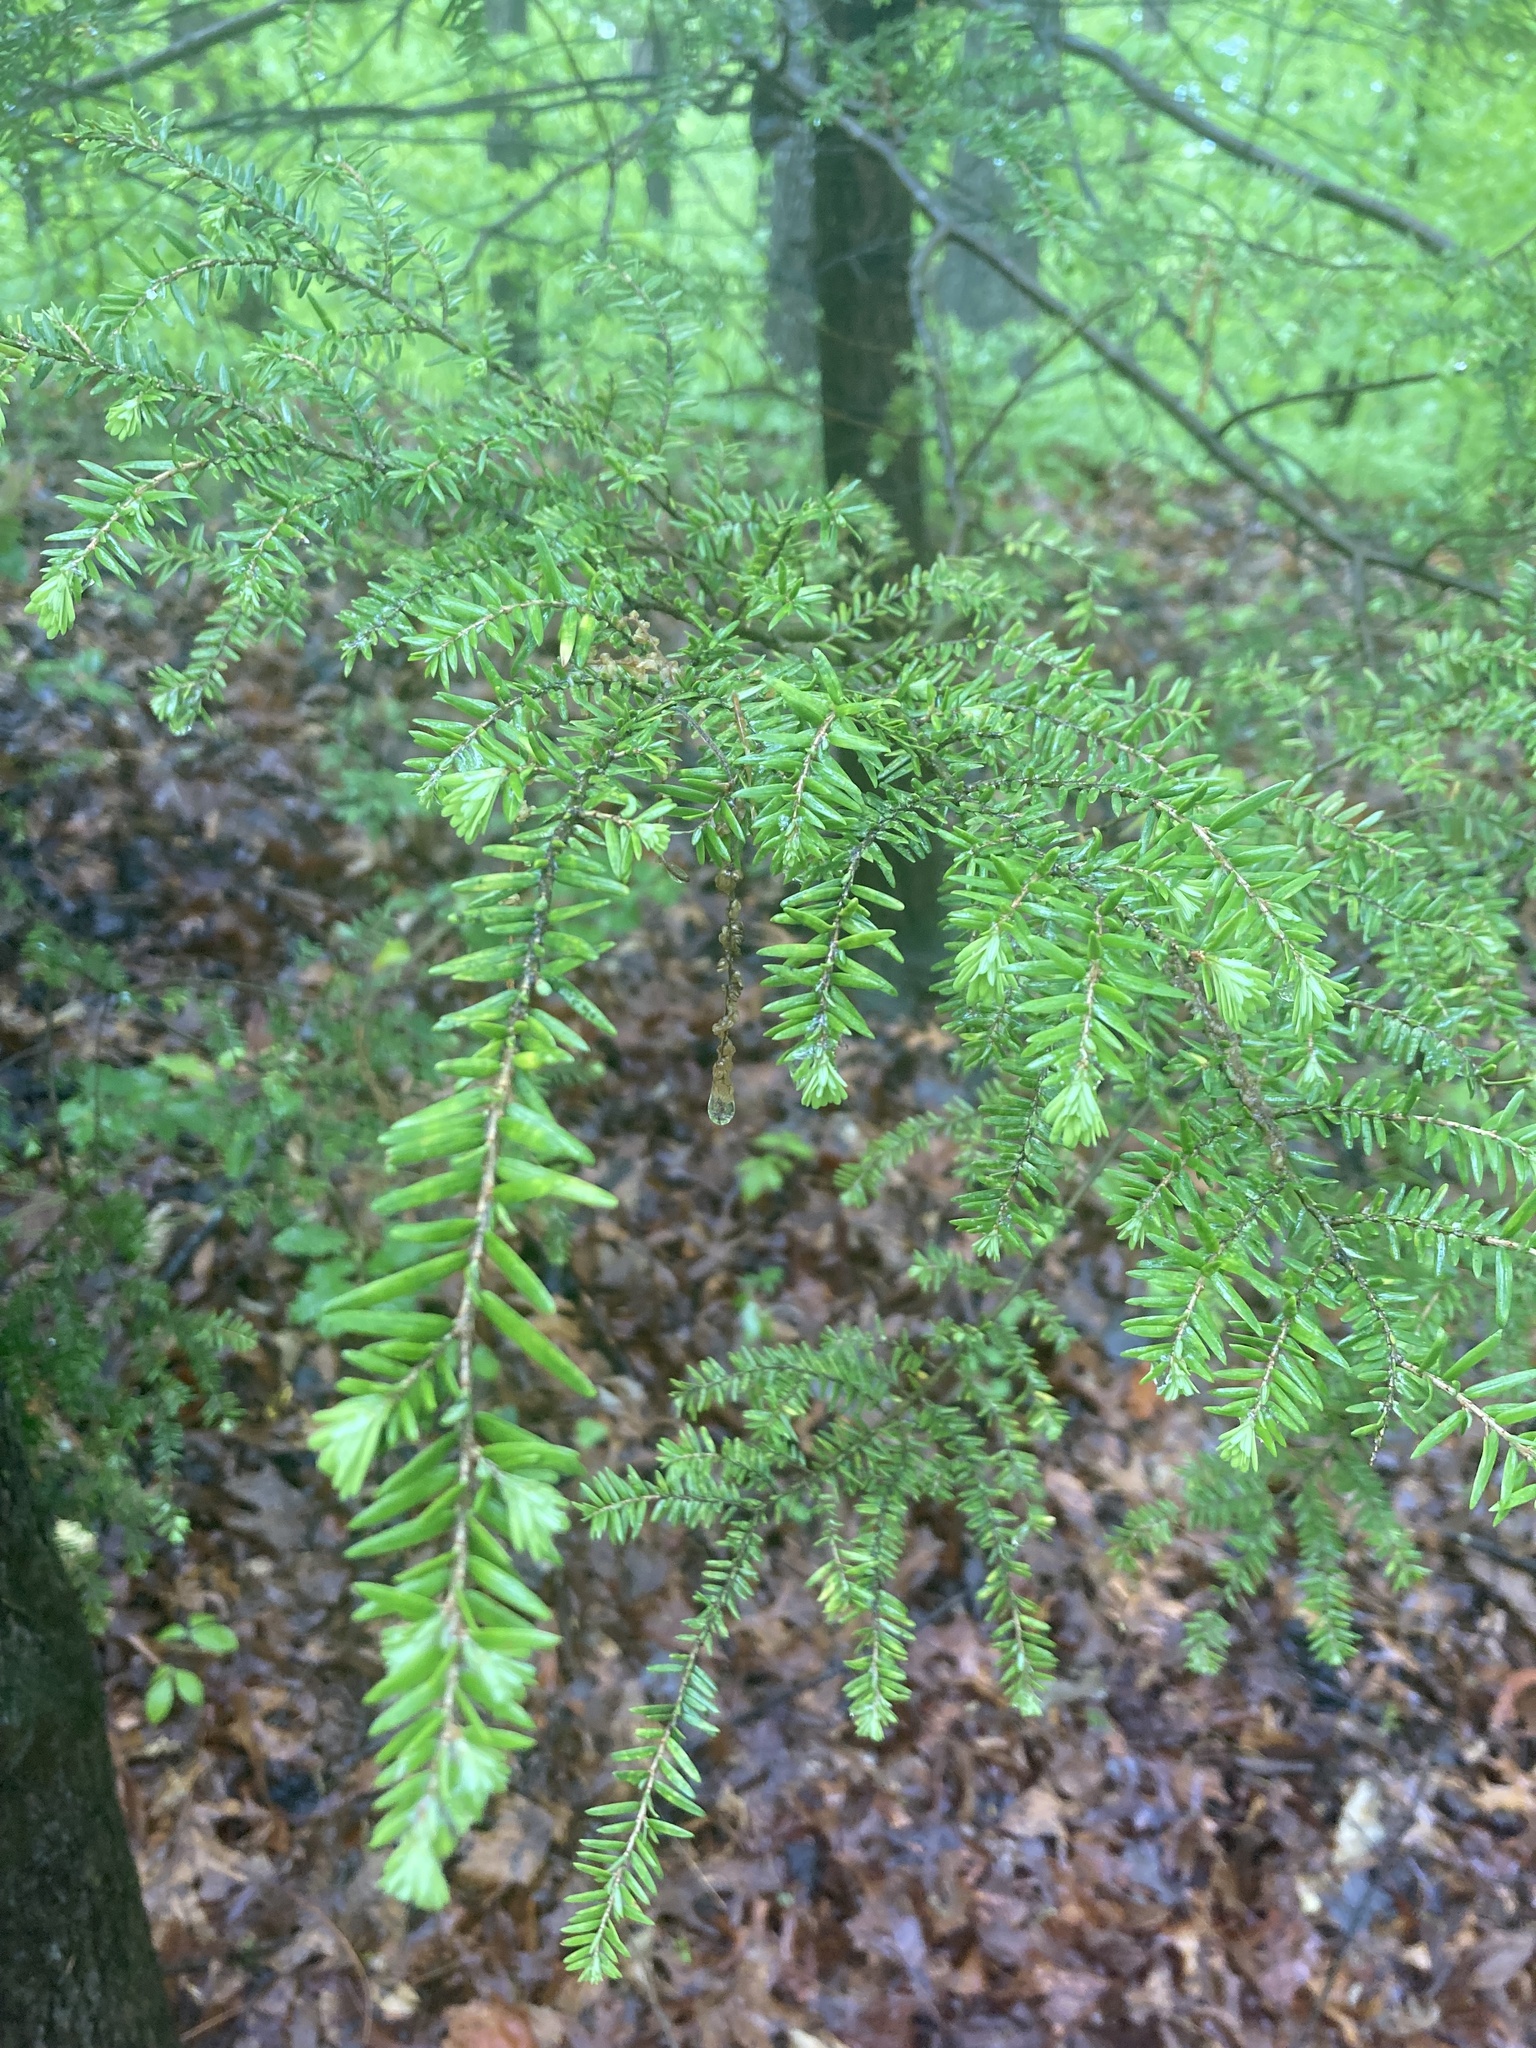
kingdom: Plantae
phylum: Tracheophyta
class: Pinopsida
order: Pinales
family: Pinaceae
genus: Tsuga
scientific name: Tsuga canadensis
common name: Eastern hemlock
